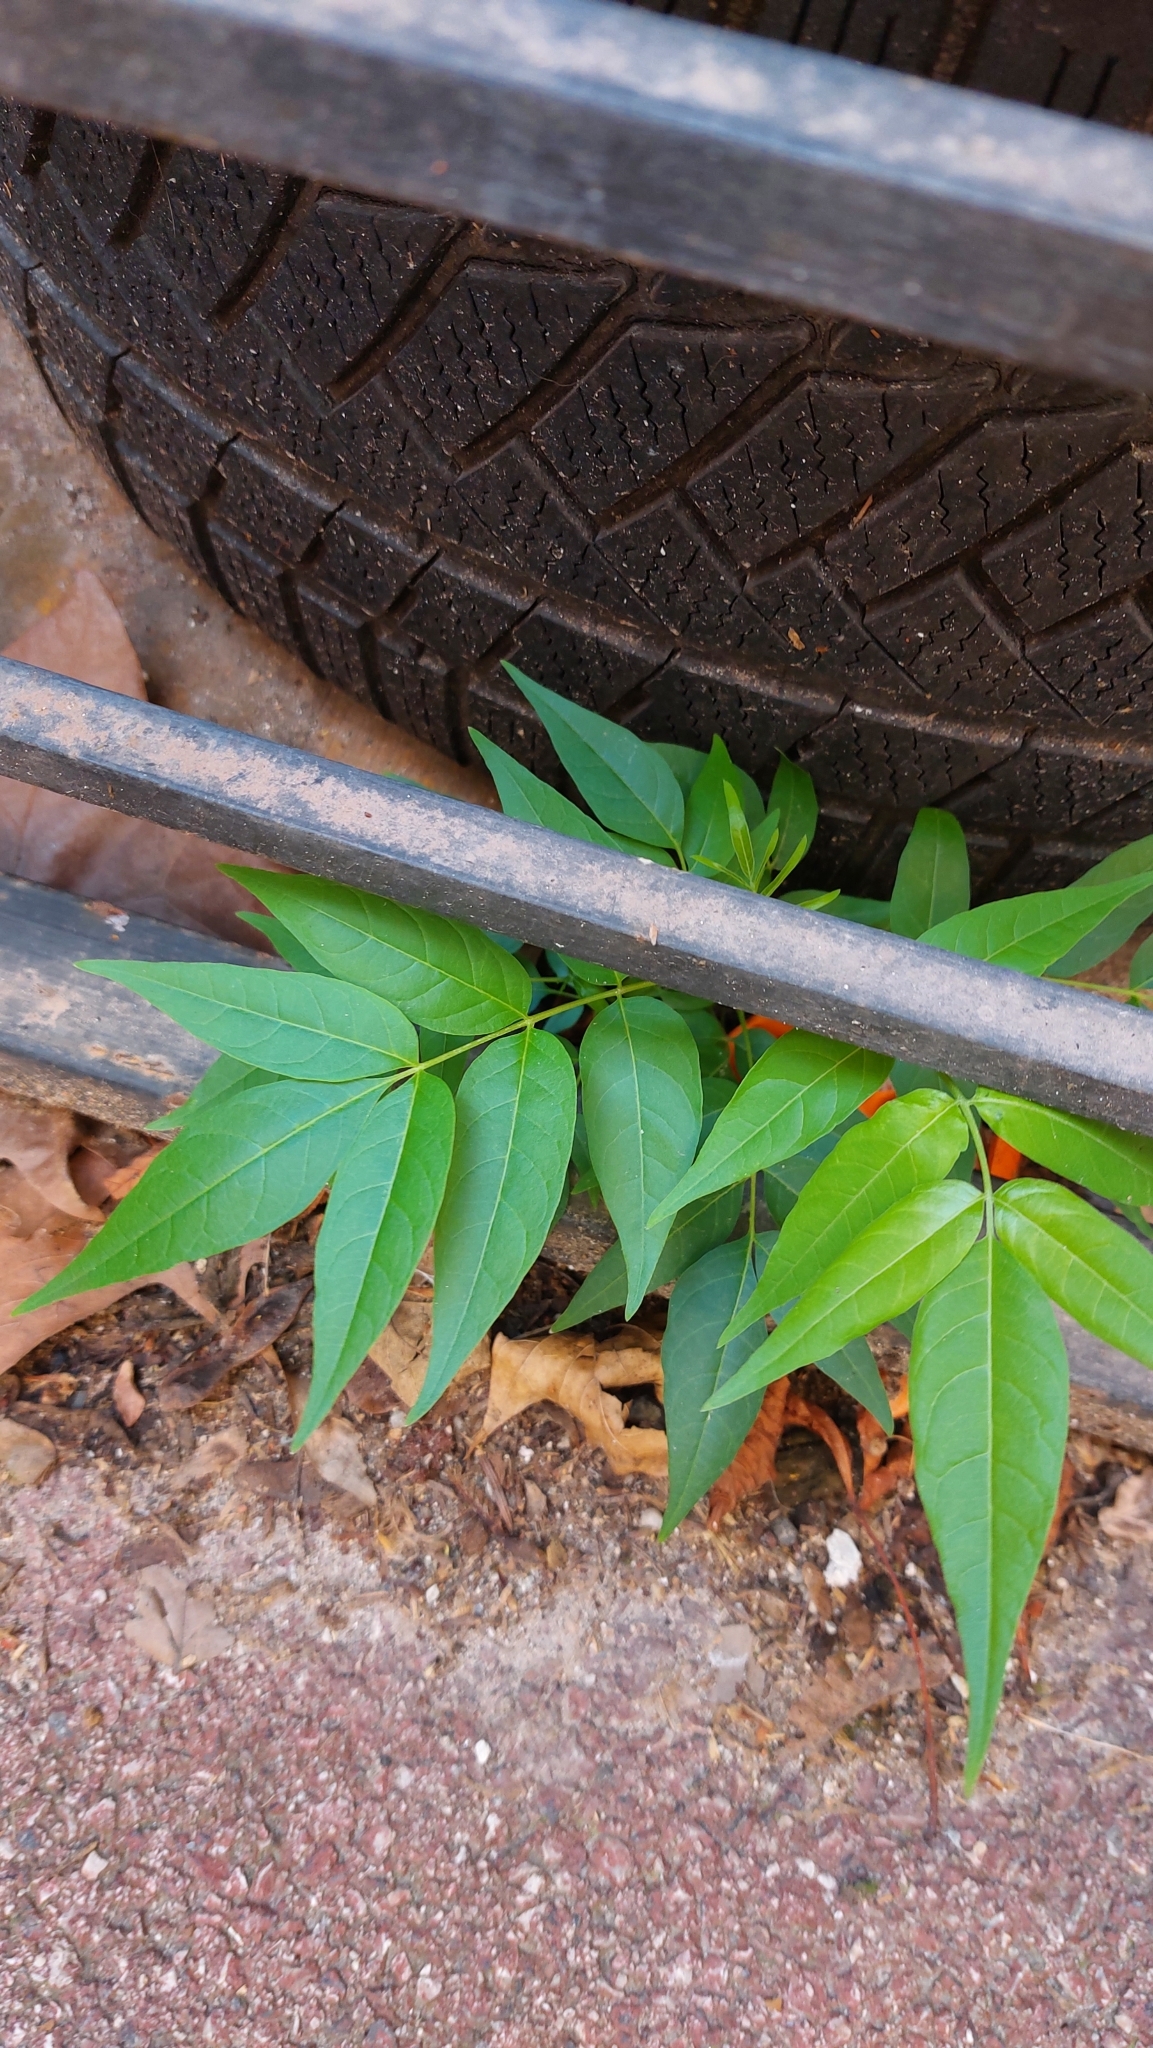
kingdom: Plantae
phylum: Tracheophyta
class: Magnoliopsida
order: Sapindales
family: Simaroubaceae
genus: Ailanthus
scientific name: Ailanthus altissima
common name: Tree-of-heaven
